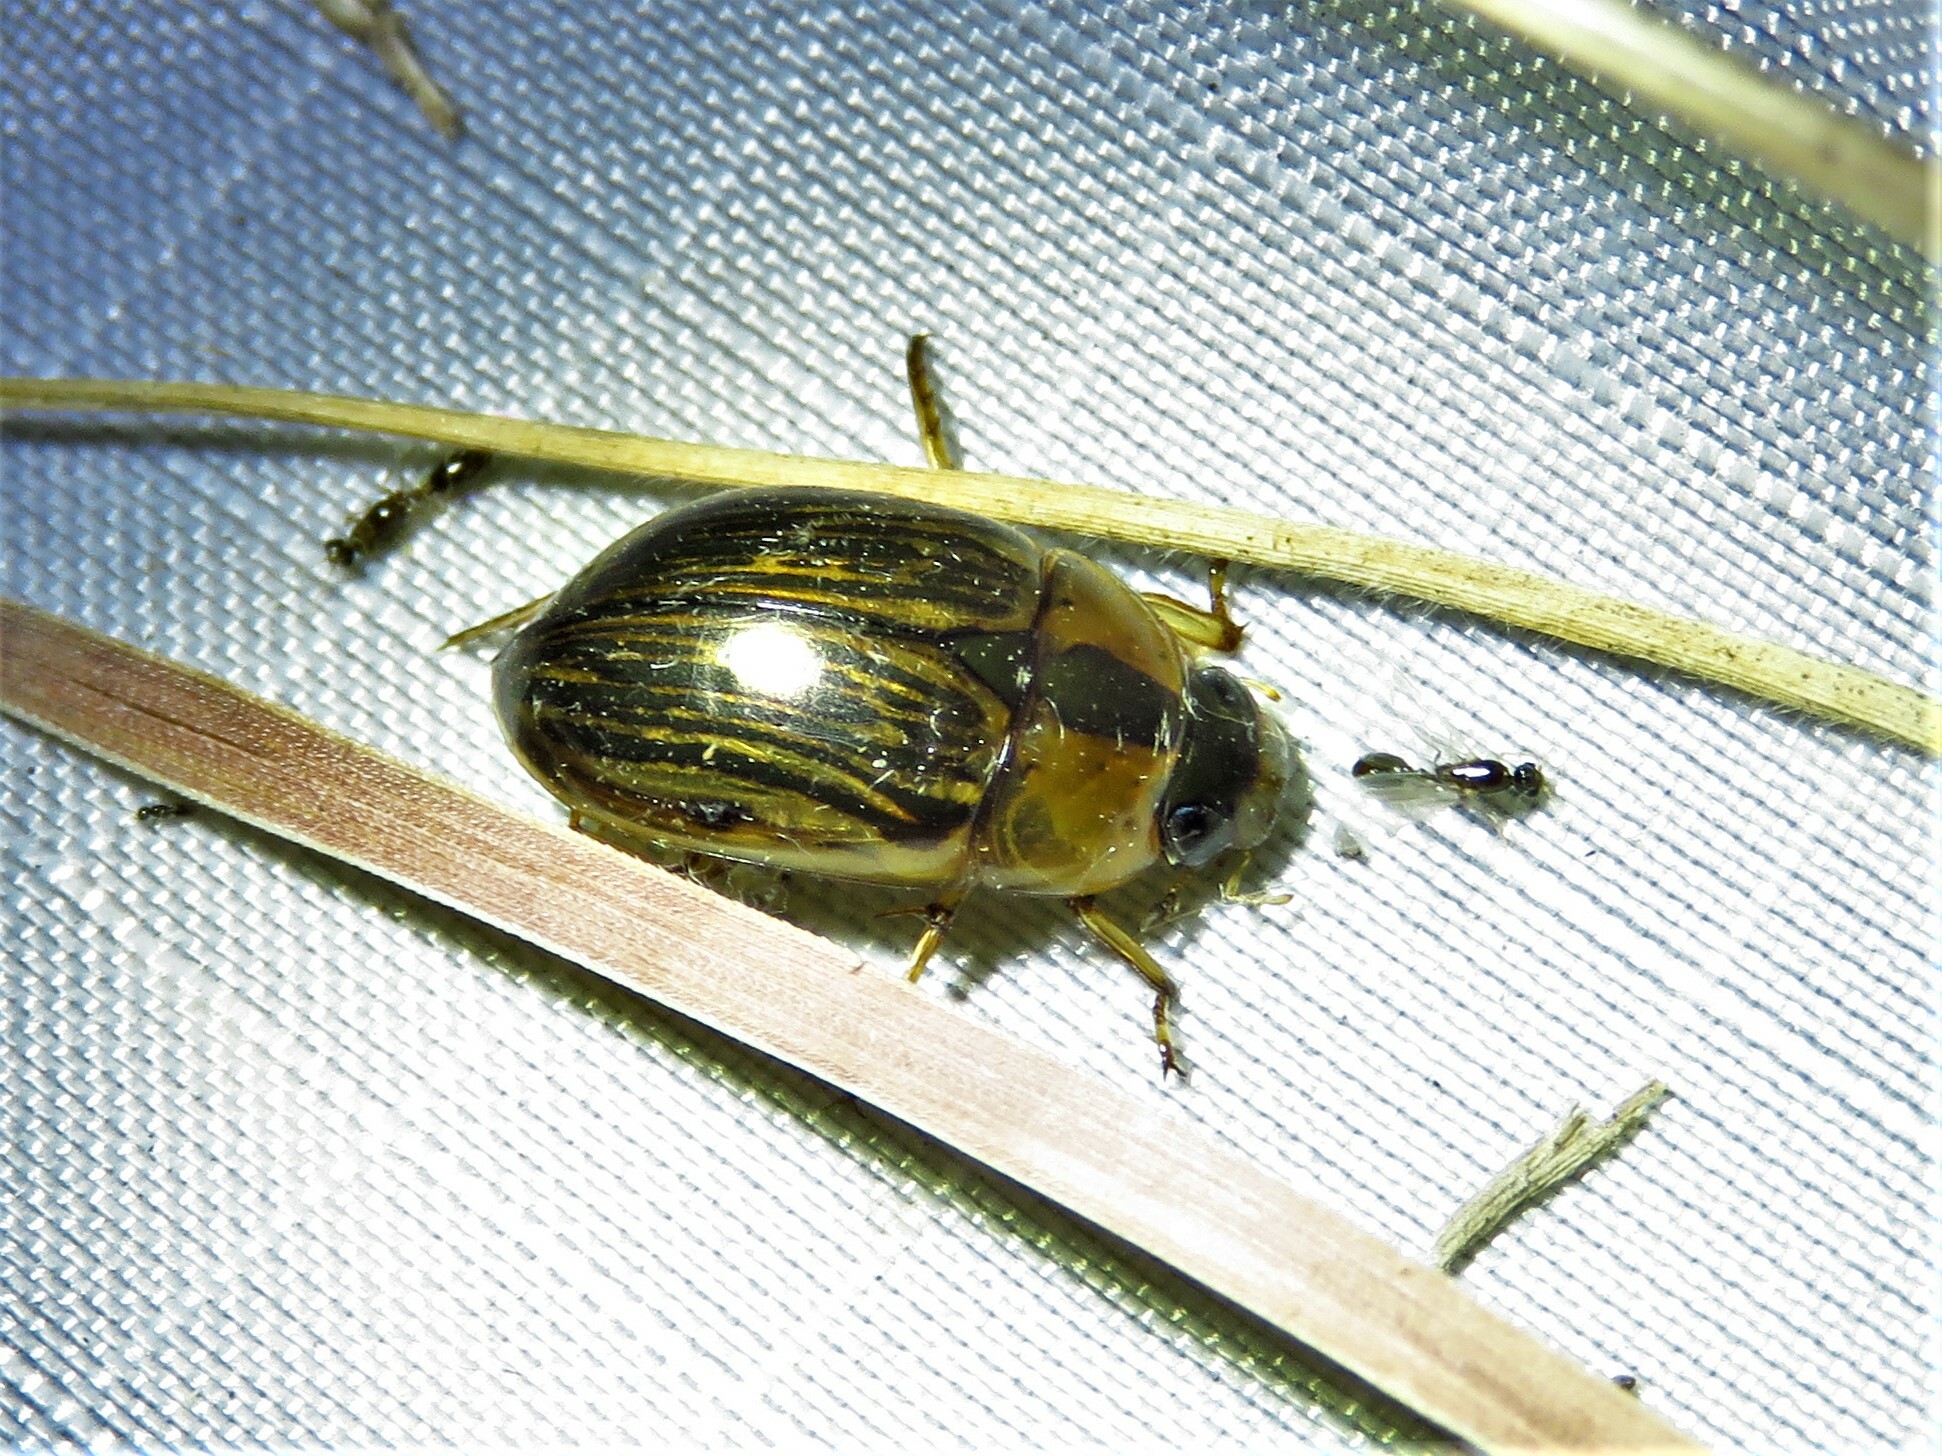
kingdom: Animalia
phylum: Arthropoda
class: Insecta
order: Coleoptera
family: Hydrophilidae
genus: Tropisternus
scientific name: Tropisternus collaris
